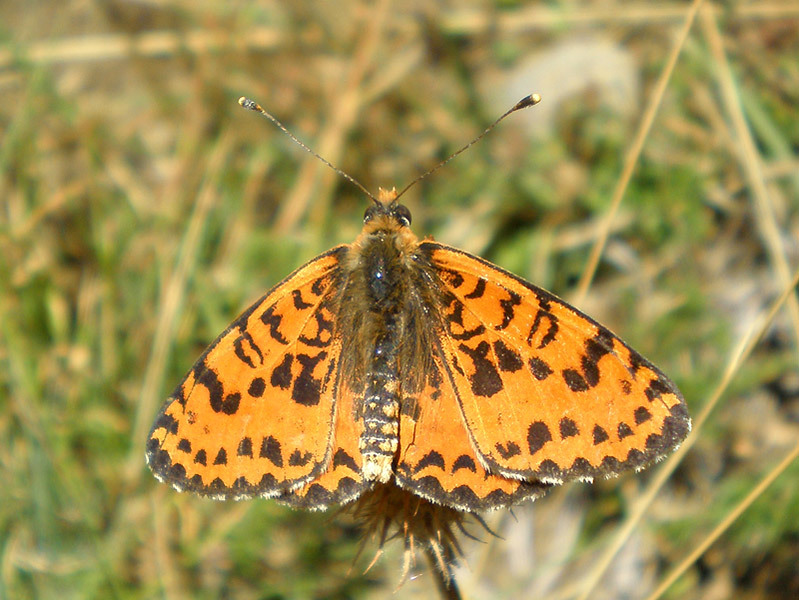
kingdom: Animalia
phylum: Arthropoda
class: Insecta
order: Lepidoptera
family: Nymphalidae
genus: Melitaea
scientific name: Melitaea didyma
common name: Spotted fritillary
